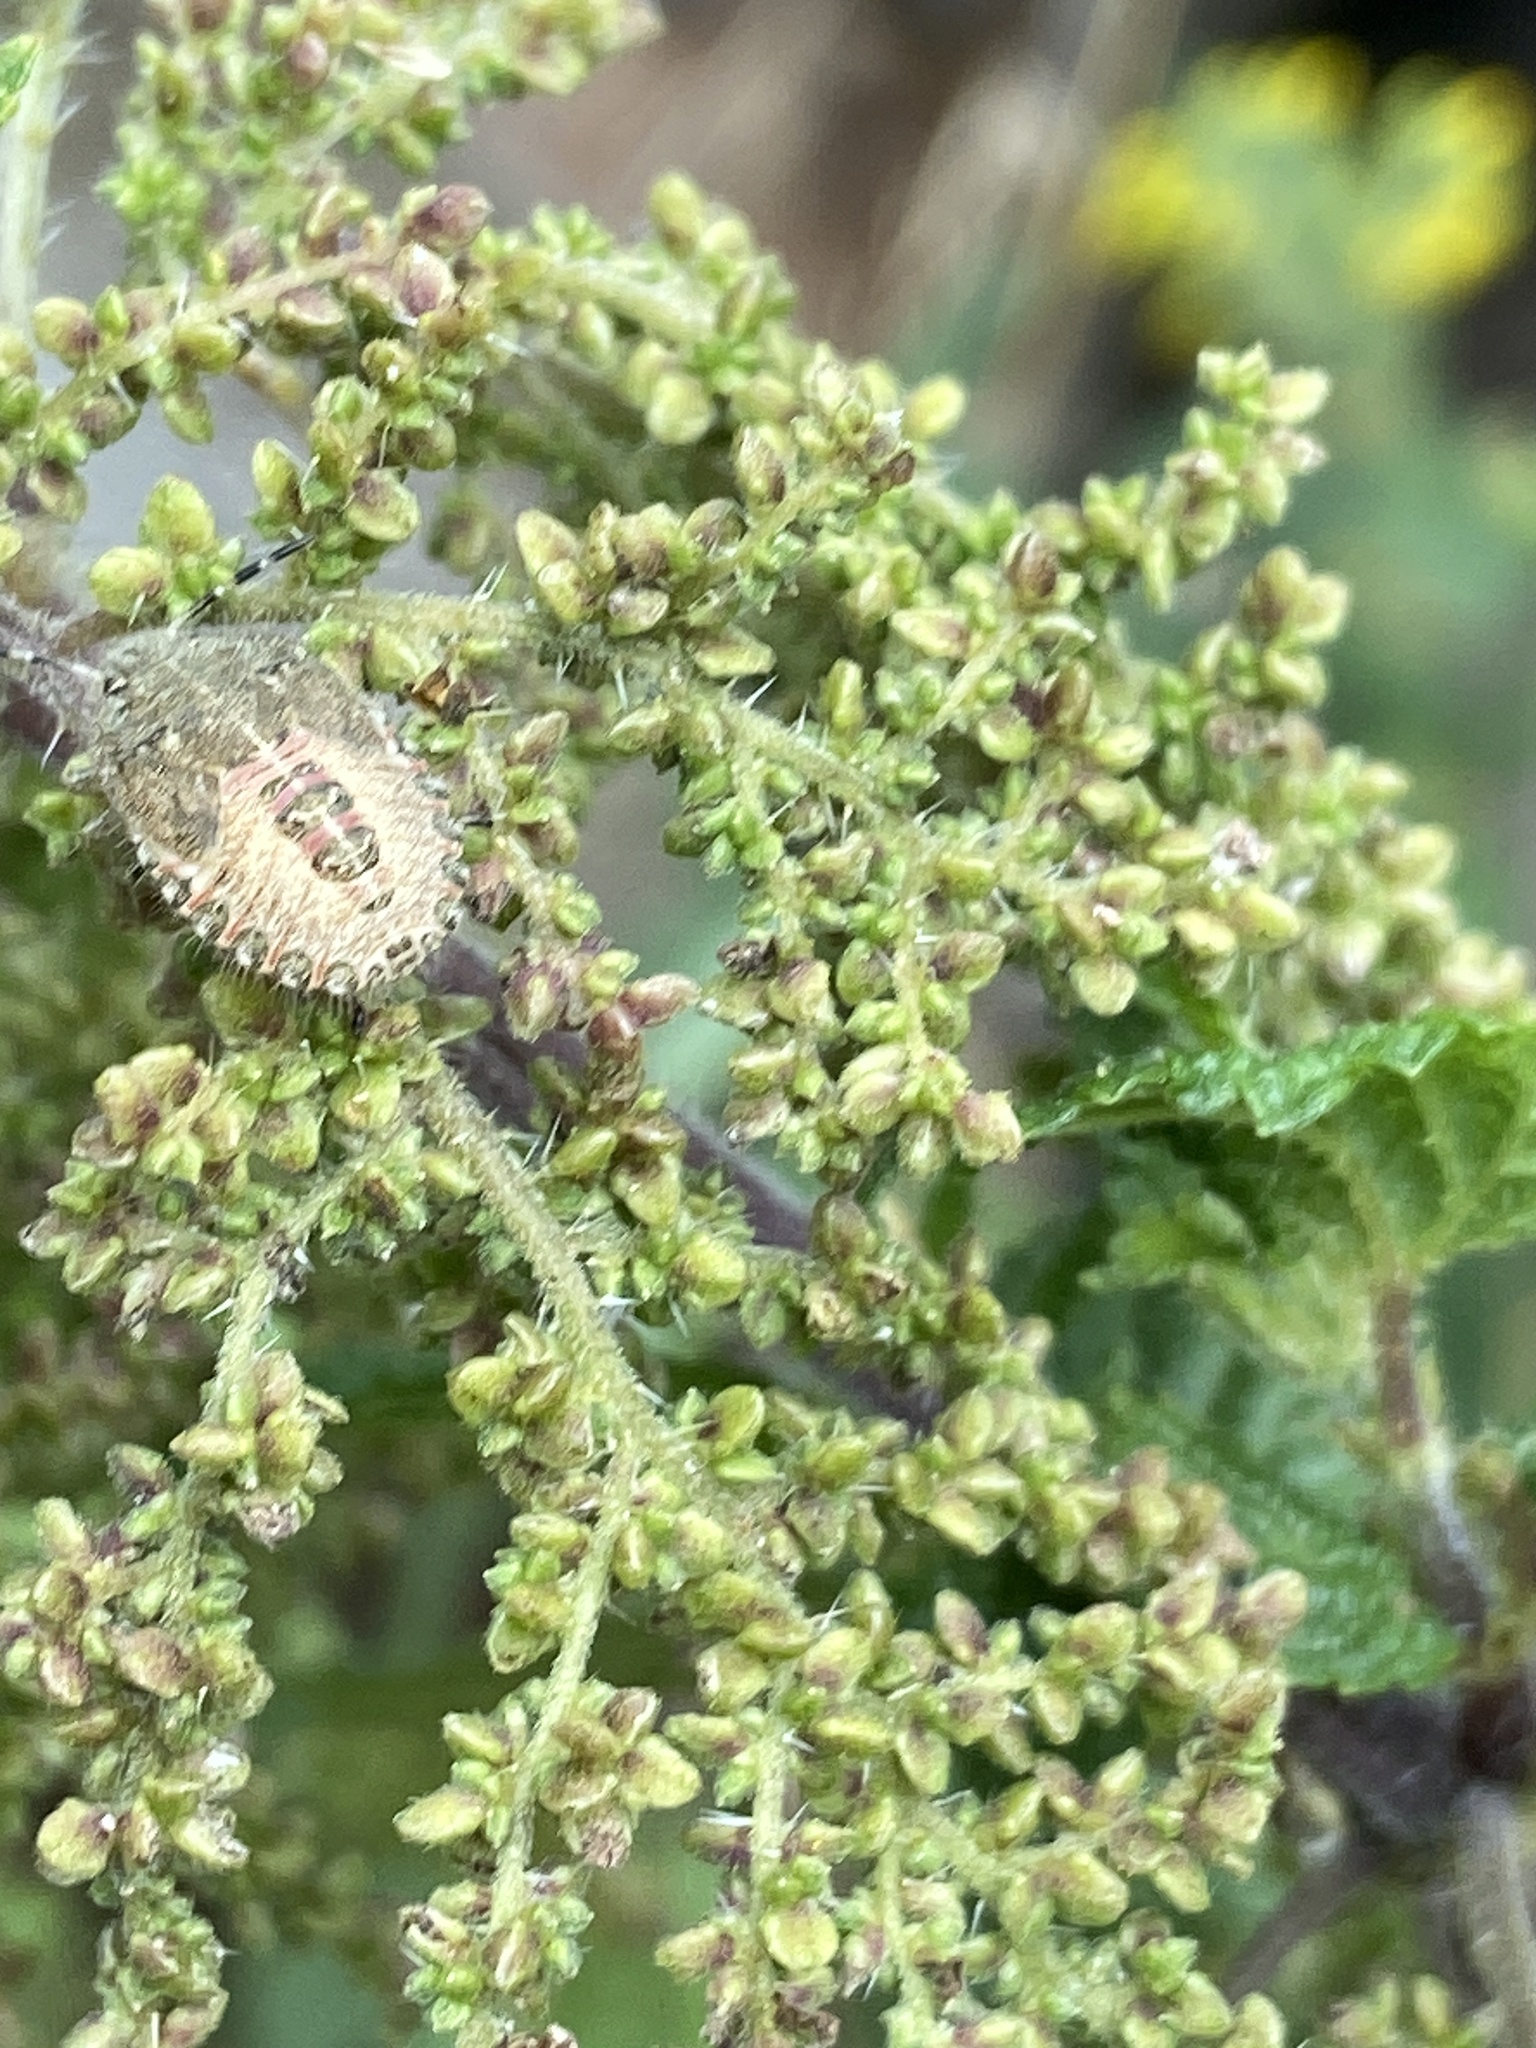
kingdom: Animalia
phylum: Arthropoda
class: Insecta
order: Hemiptera
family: Pentatomidae
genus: Dolycoris
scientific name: Dolycoris baccarum
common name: Sloe bug
